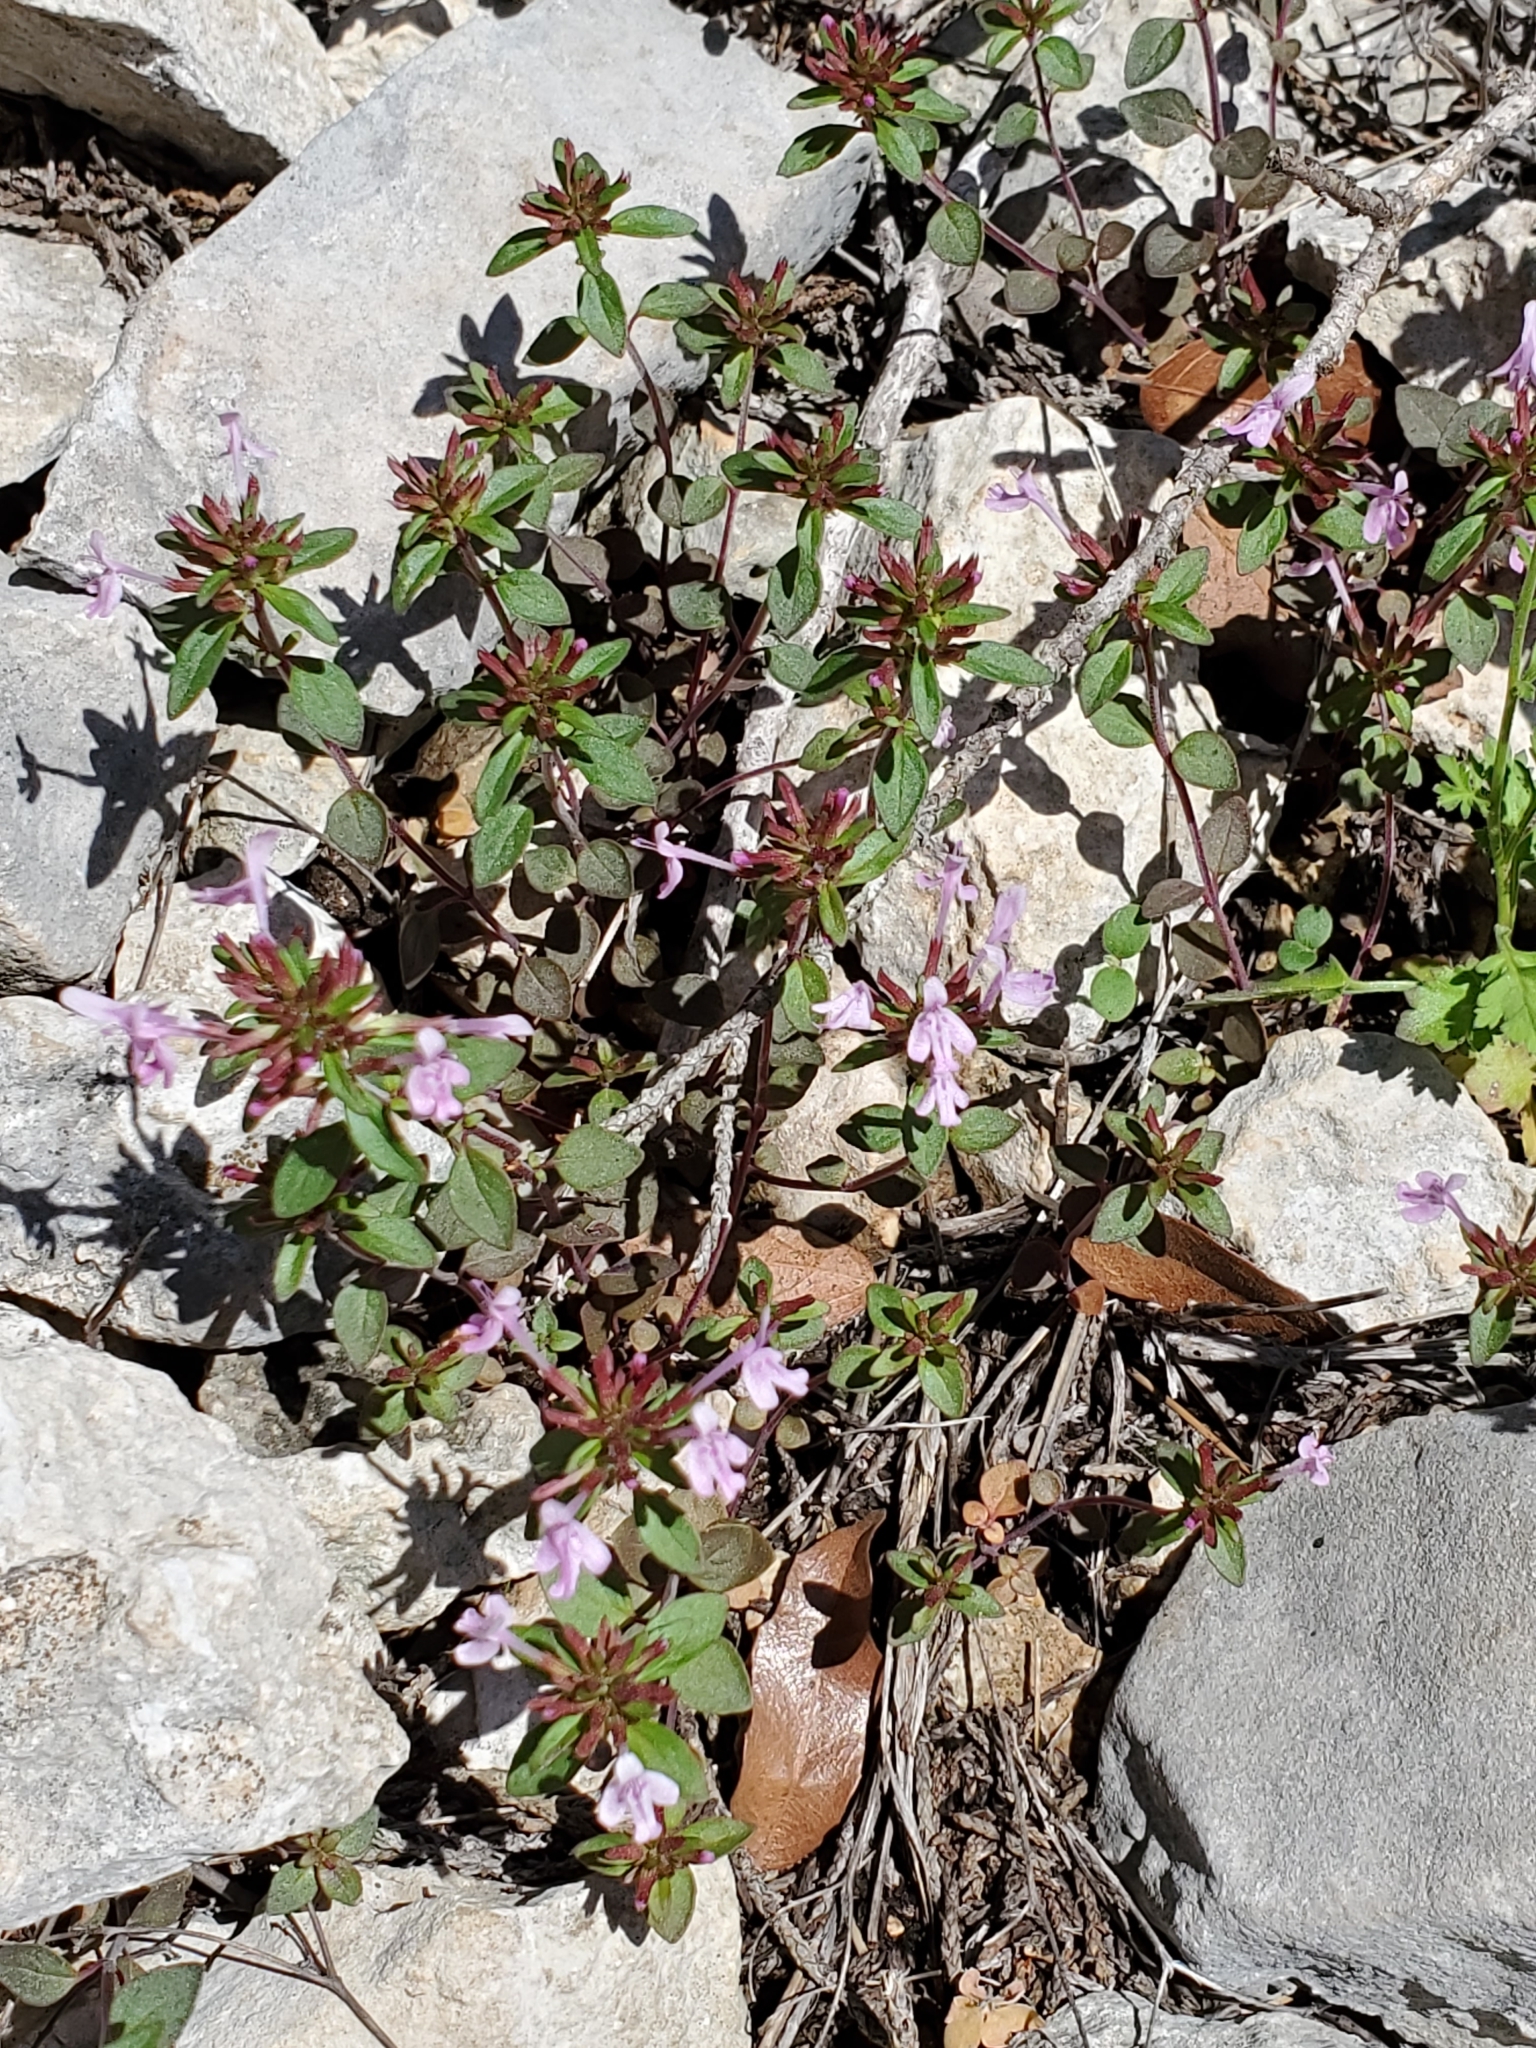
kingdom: Plantae
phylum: Tracheophyta
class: Magnoliopsida
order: Lamiales
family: Lamiaceae
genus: Hedeoma
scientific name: Hedeoma acinoides
